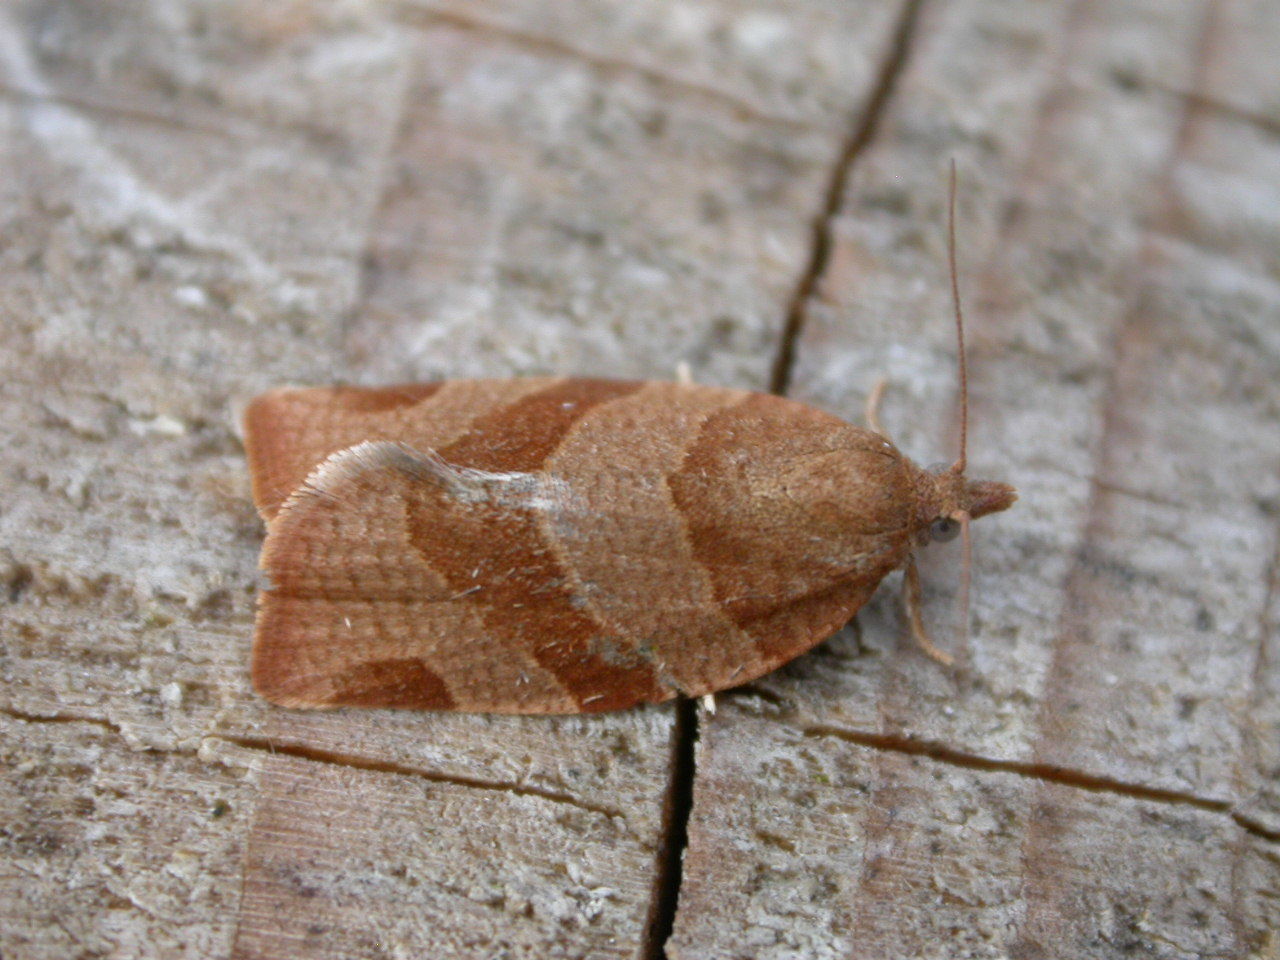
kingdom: Animalia
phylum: Arthropoda
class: Insecta
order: Lepidoptera
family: Tortricidae
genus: Pandemis
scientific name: Pandemis cinnamomeana
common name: White-faced twist
